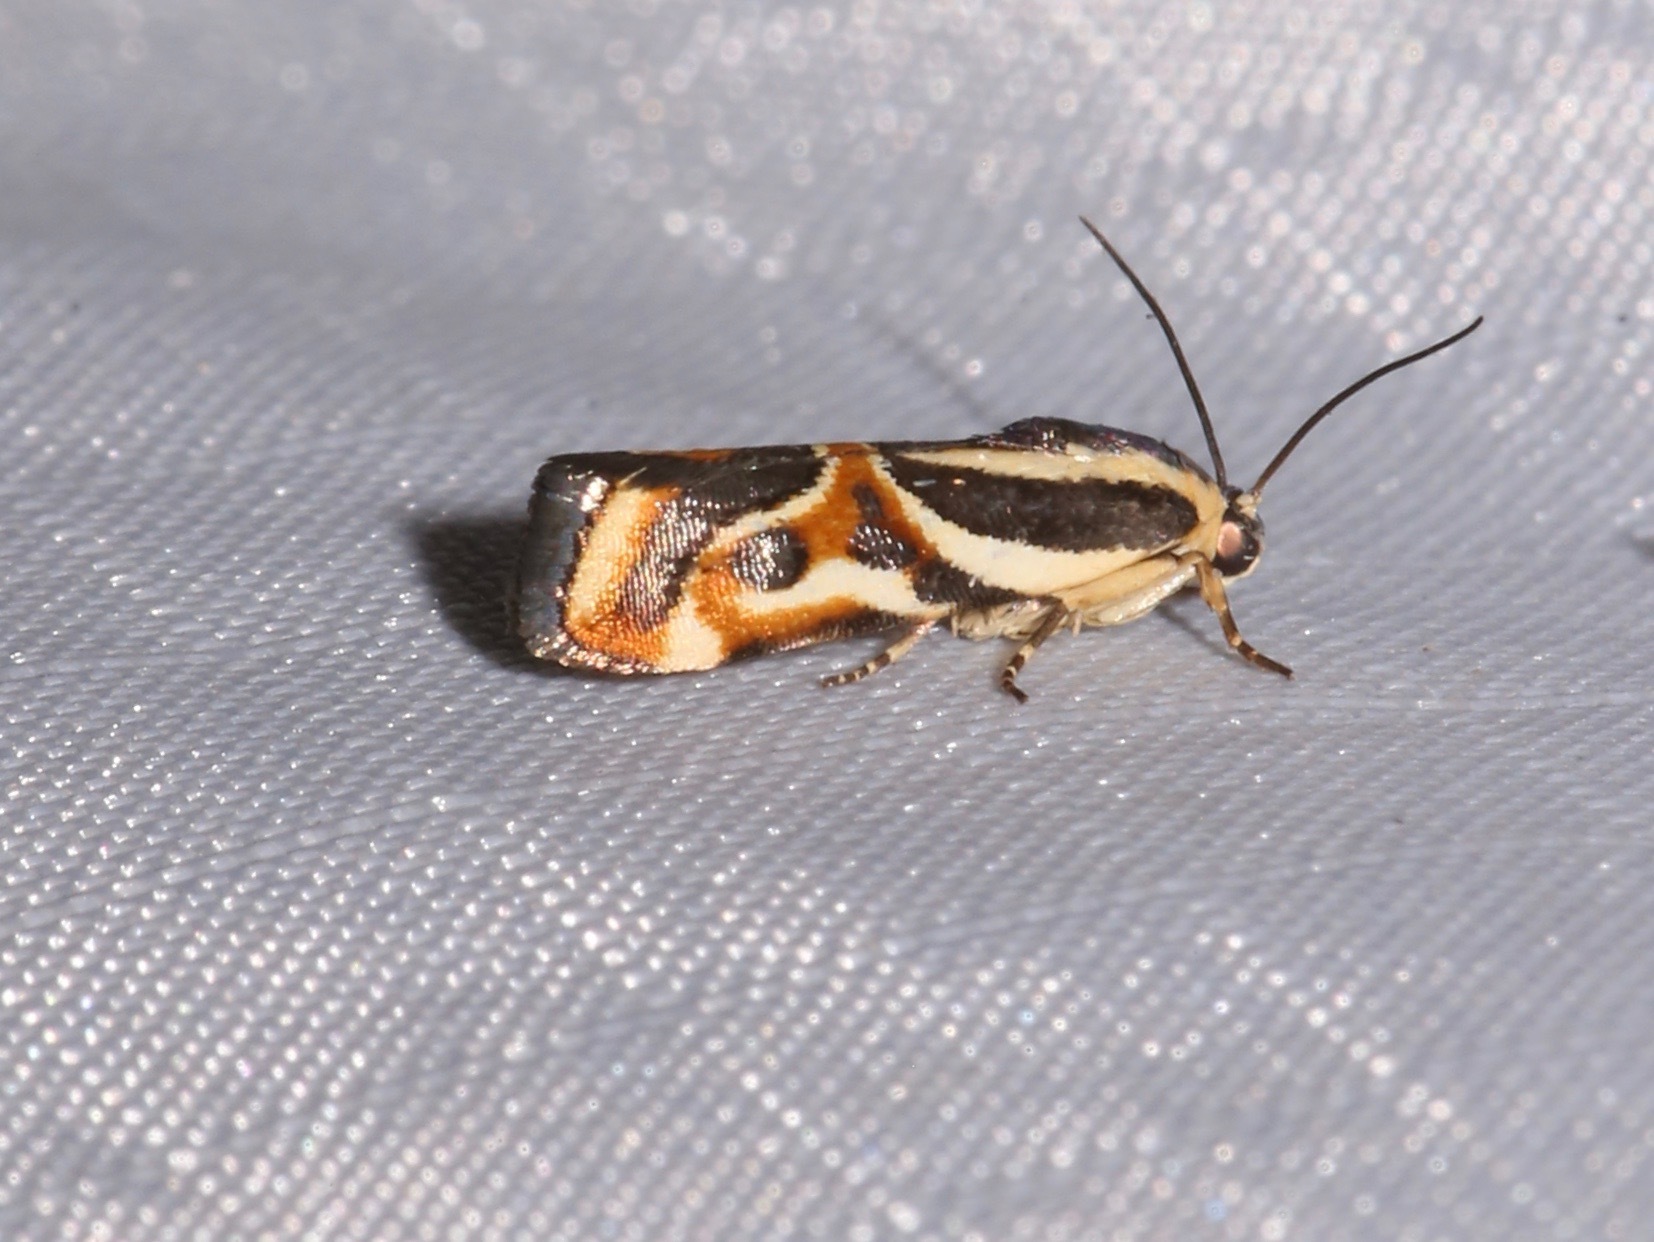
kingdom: Animalia
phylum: Arthropoda
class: Insecta
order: Lepidoptera
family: Noctuidae
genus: Spragueia
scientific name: Spragueia magnifica
